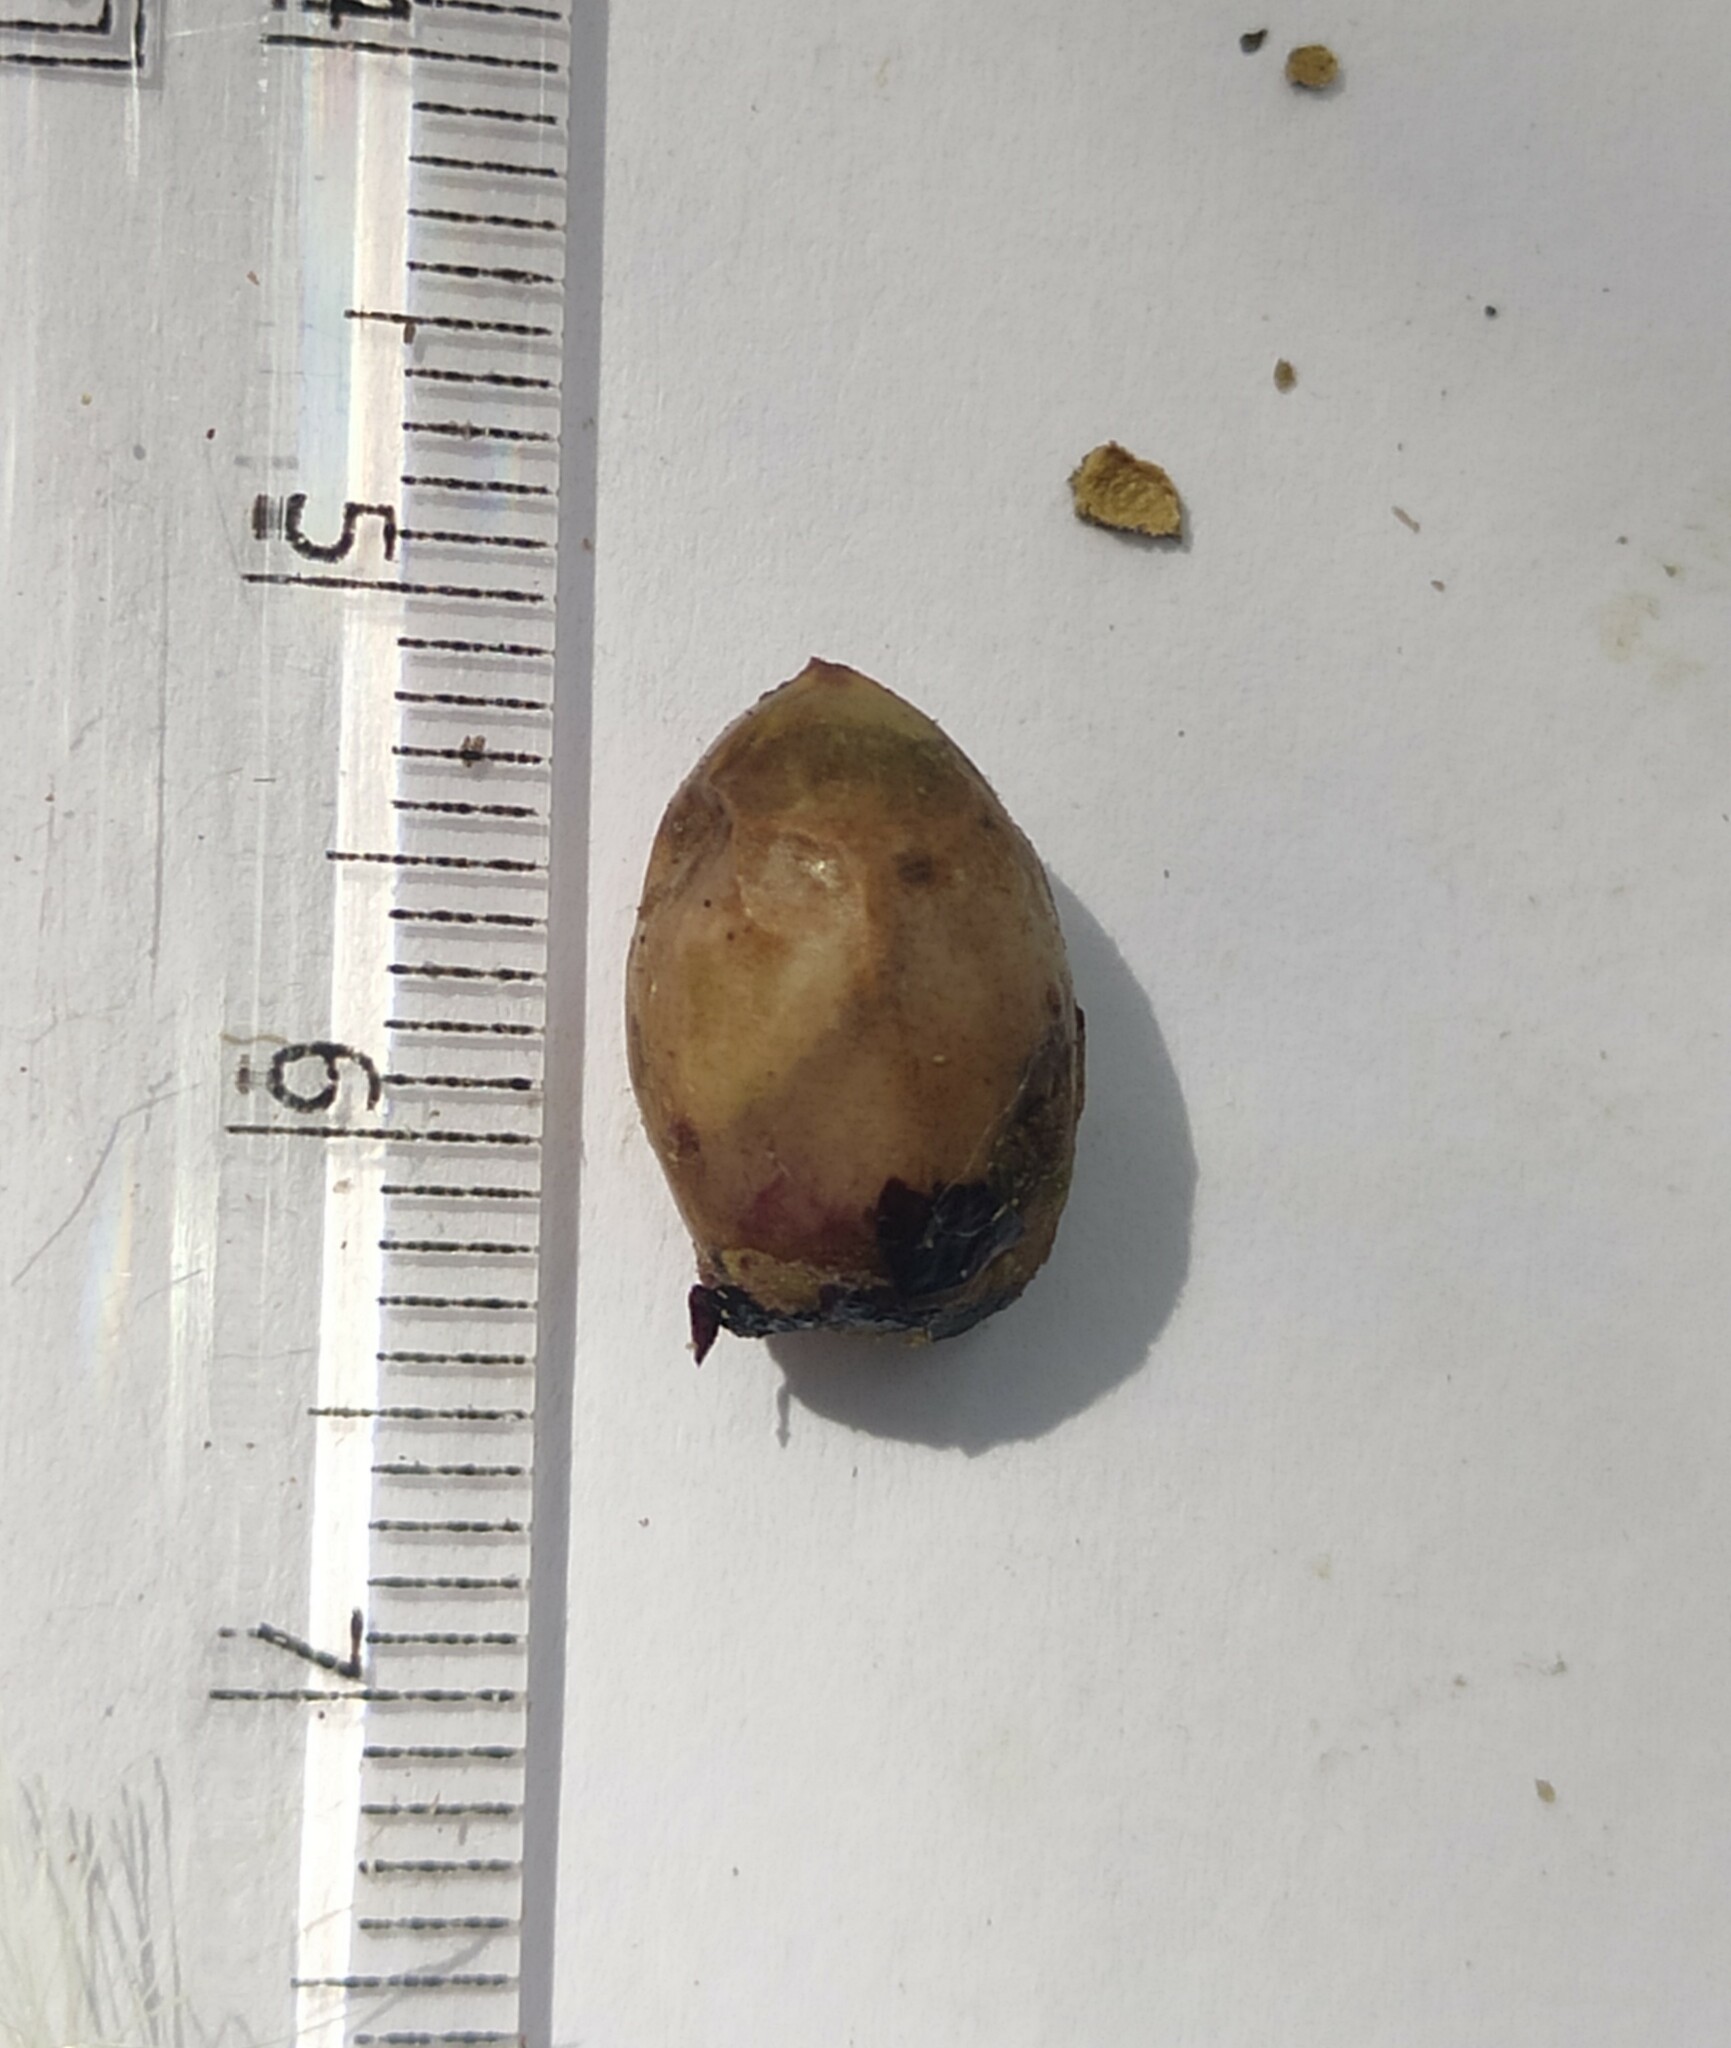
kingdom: Plantae
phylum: Tracheophyta
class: Magnoliopsida
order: Laurales
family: Lauraceae
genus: Litsea
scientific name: Litsea floribunda
